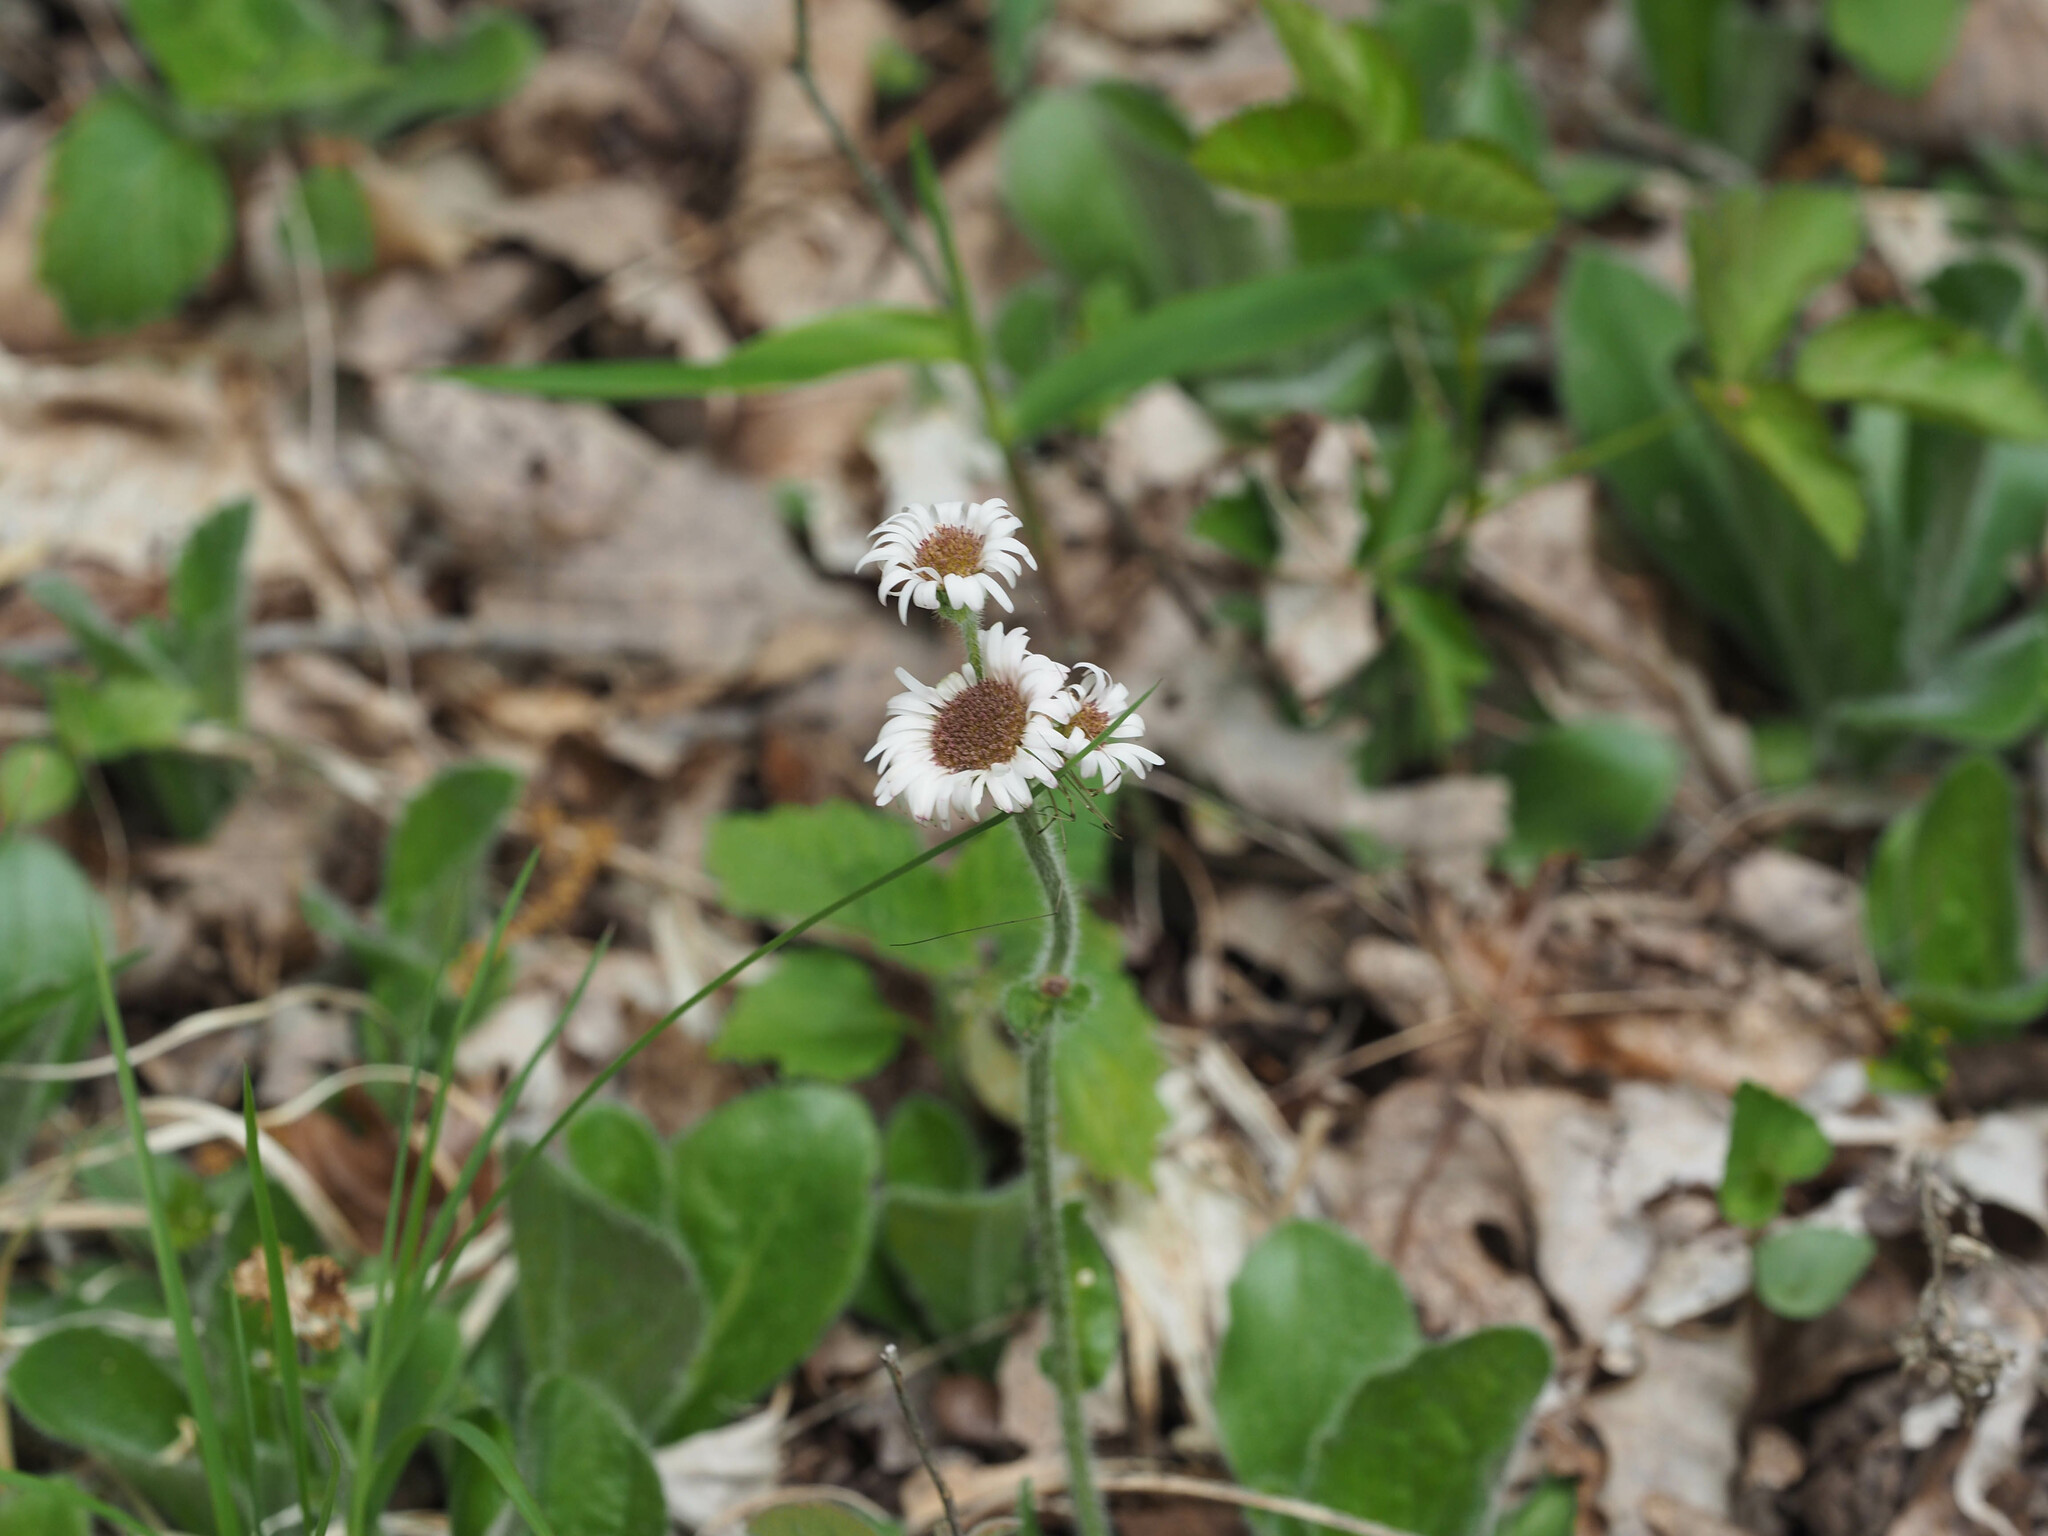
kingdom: Plantae
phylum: Tracheophyta
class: Magnoliopsida
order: Asterales
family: Asteraceae
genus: Erigeron
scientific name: Erigeron pulchellus
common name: Hairy fleabane
